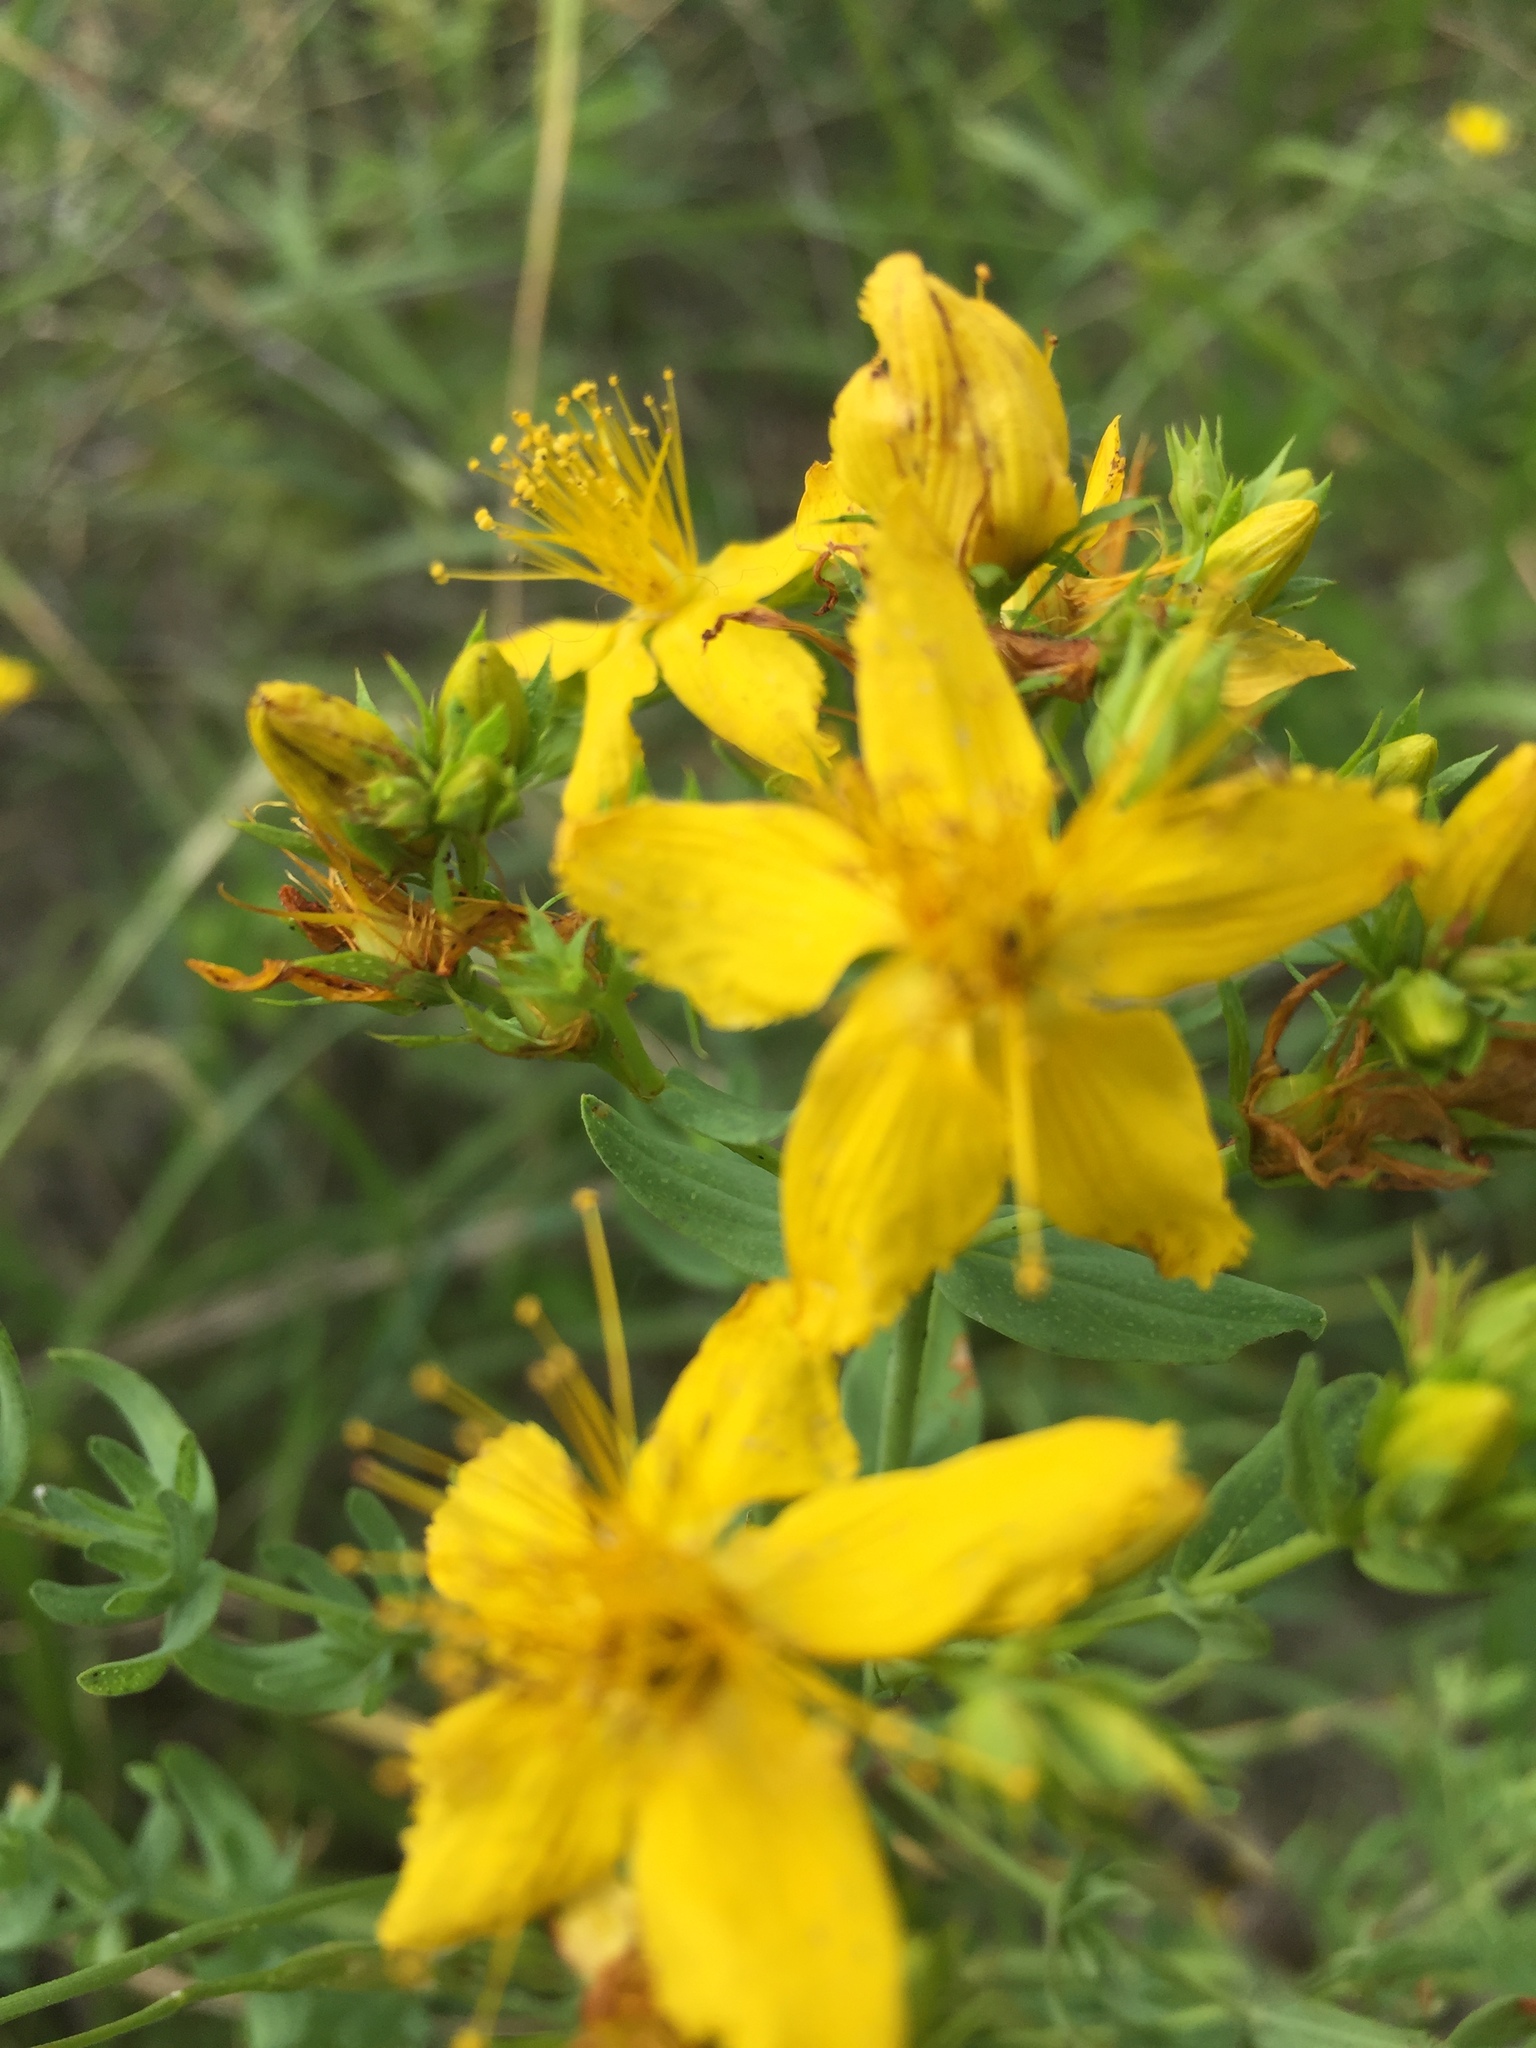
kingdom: Plantae
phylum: Tracheophyta
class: Magnoliopsida
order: Malpighiales
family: Hypericaceae
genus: Hypericum
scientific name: Hypericum perforatum
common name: Common st. johnswort
